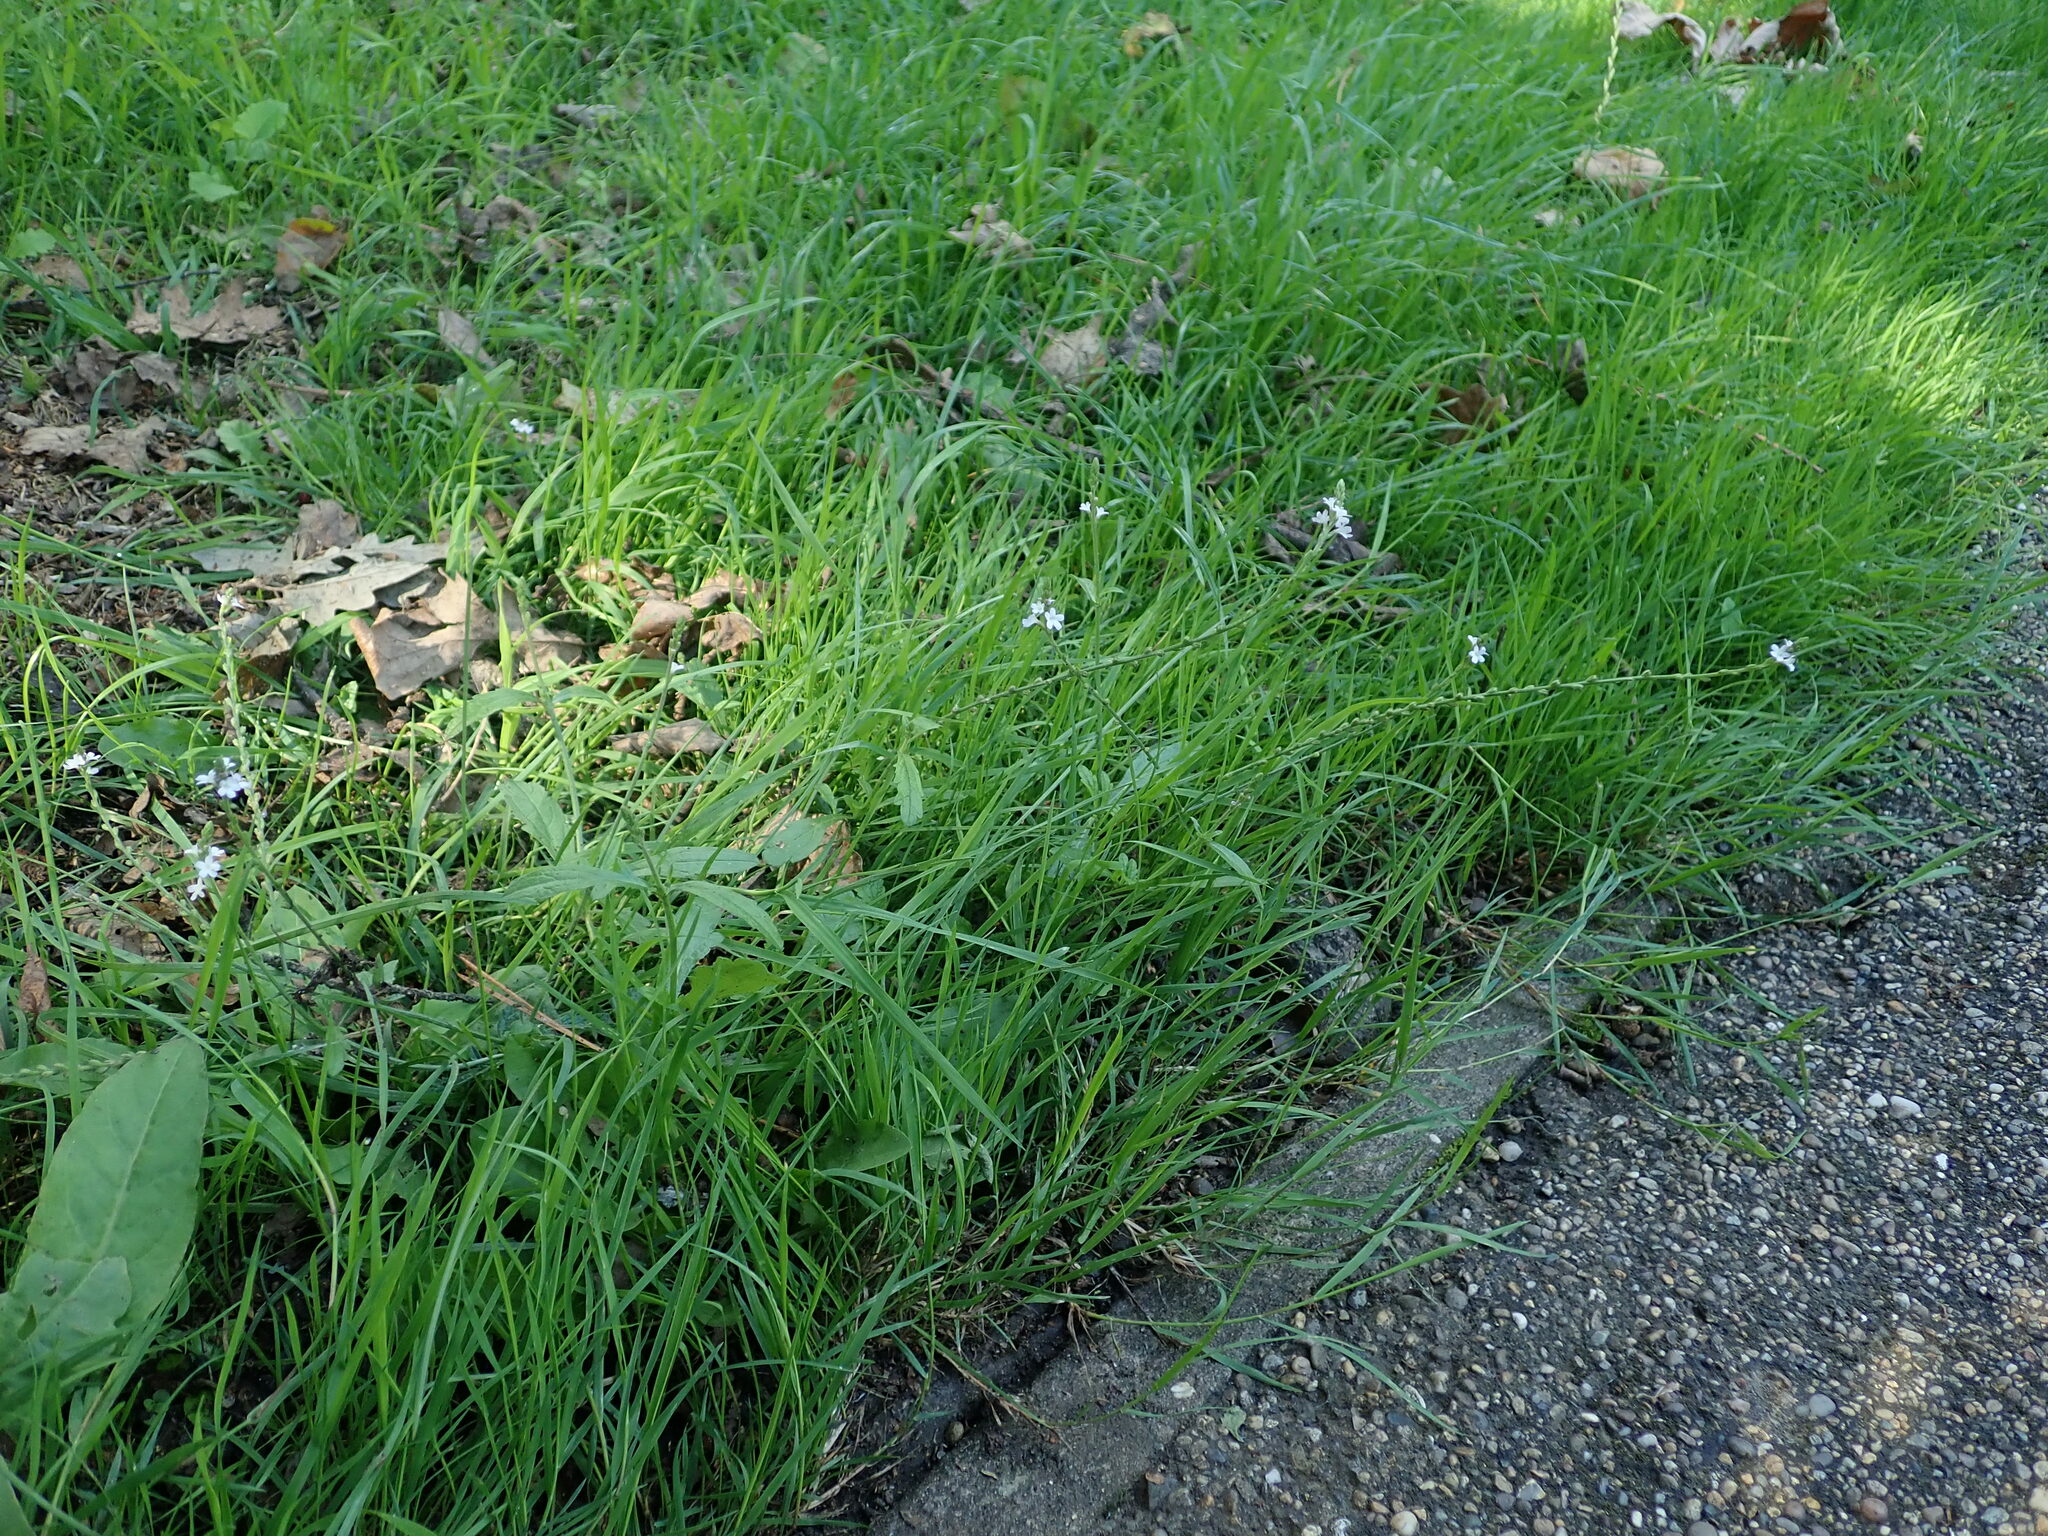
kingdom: Plantae
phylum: Tracheophyta
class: Magnoliopsida
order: Lamiales
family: Verbenaceae
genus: Verbena
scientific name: Verbena officinalis
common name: Vervain
